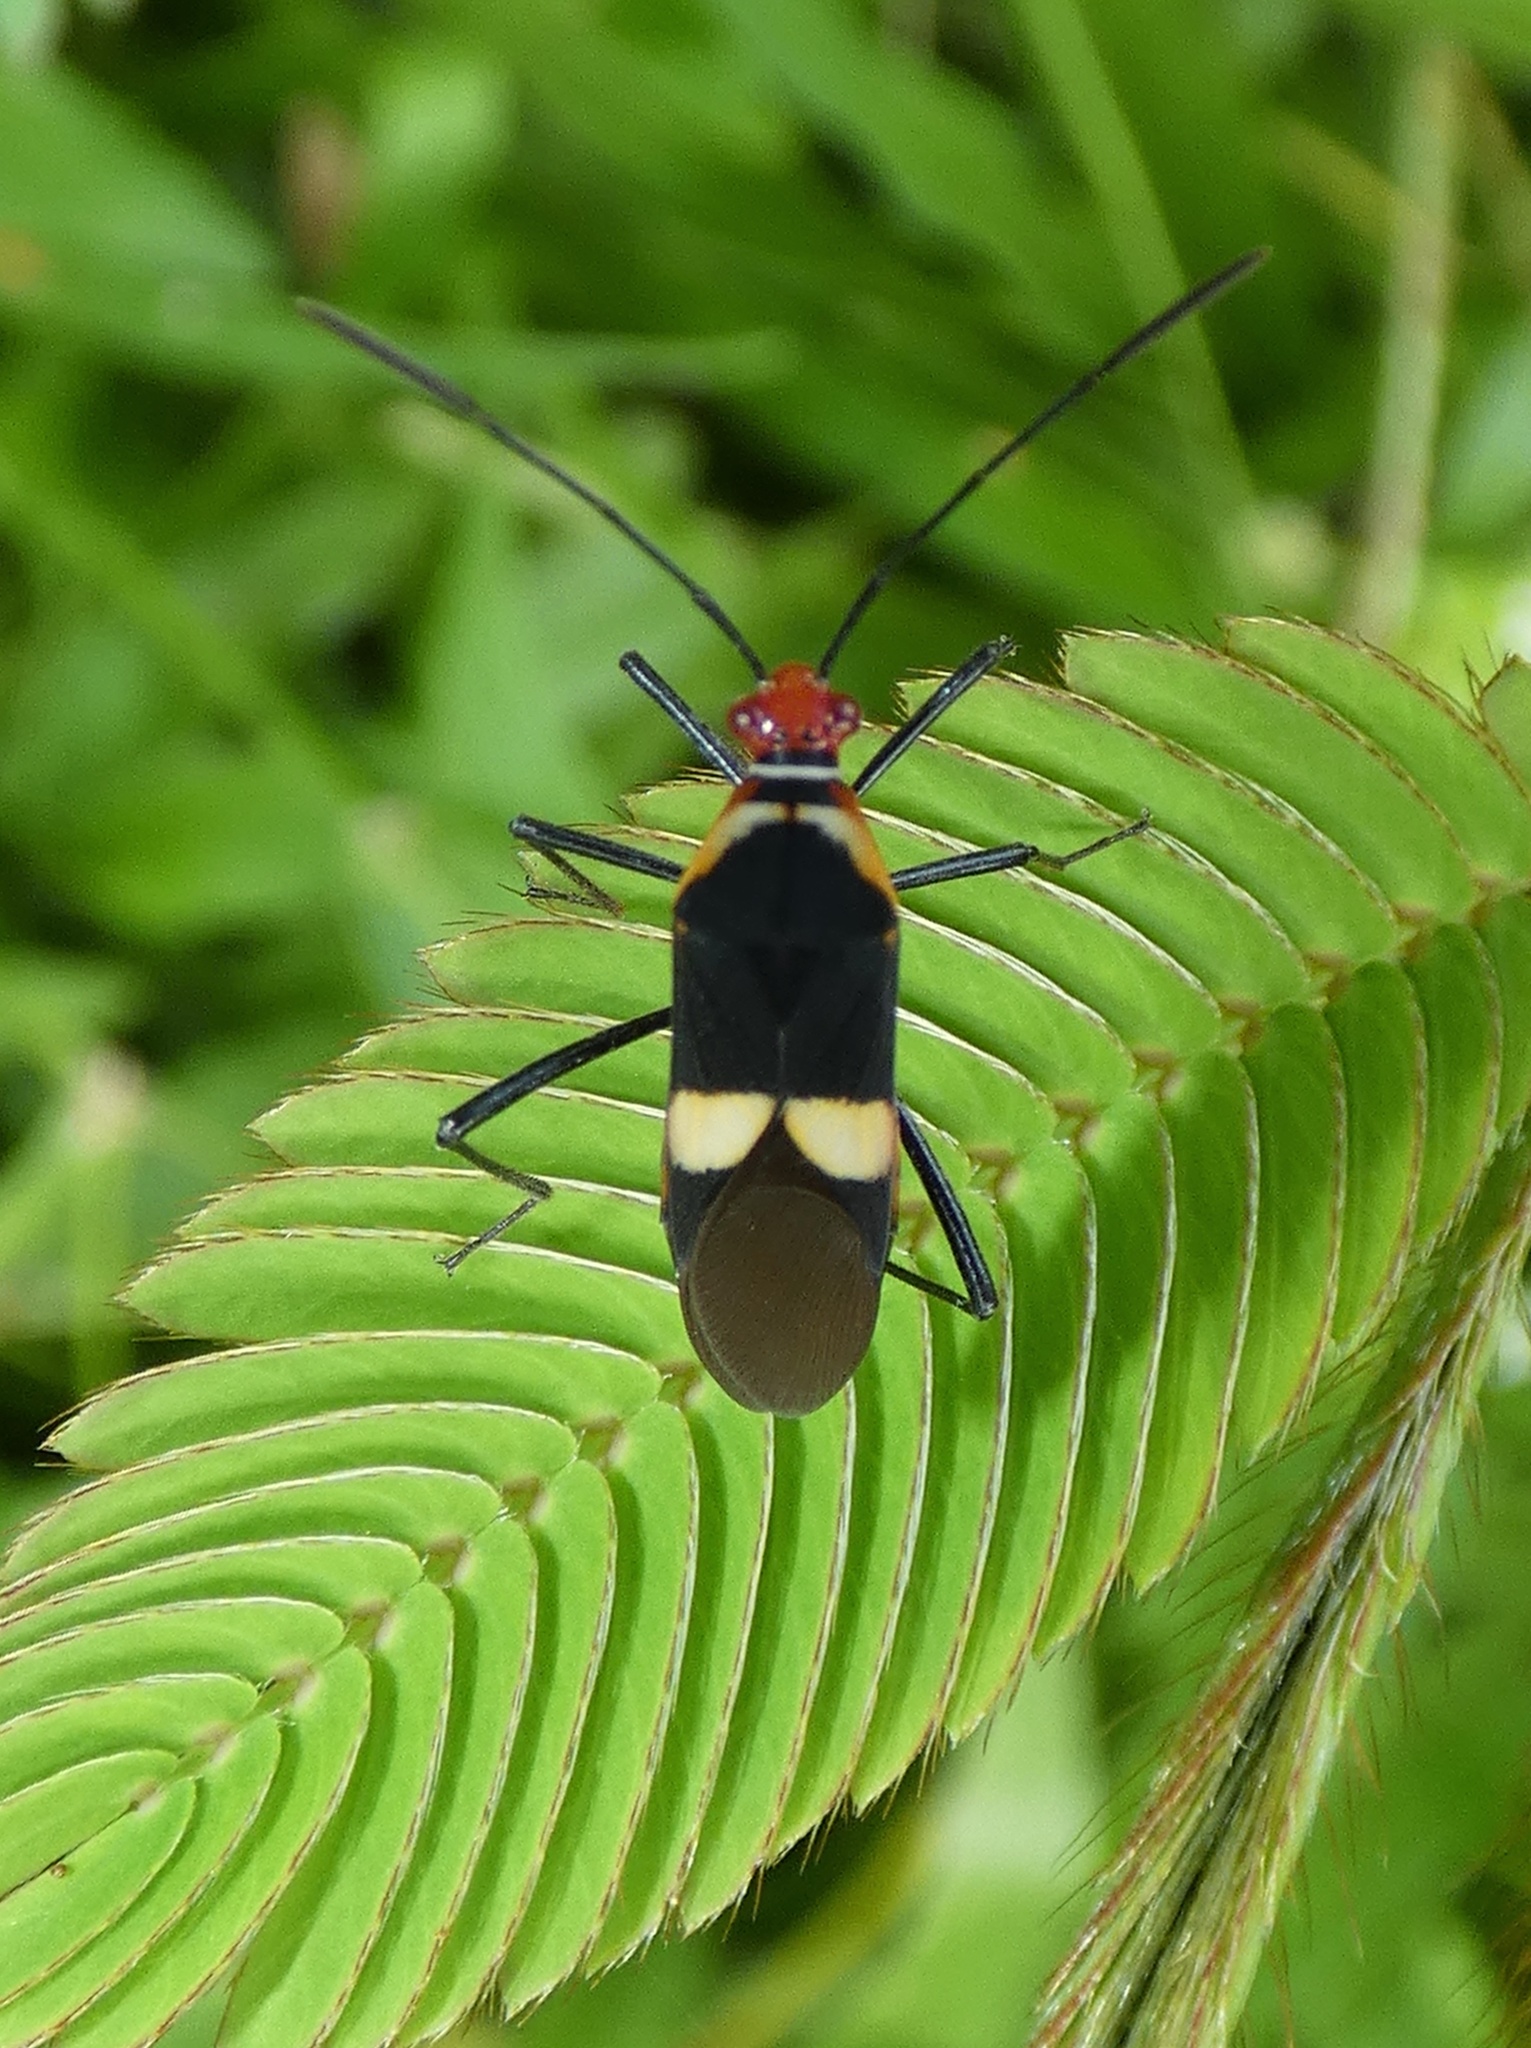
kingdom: Animalia
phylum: Arthropoda
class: Insecta
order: Hemiptera
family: Coreidae
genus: Hypselonotus
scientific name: Hypselonotus interruptus
